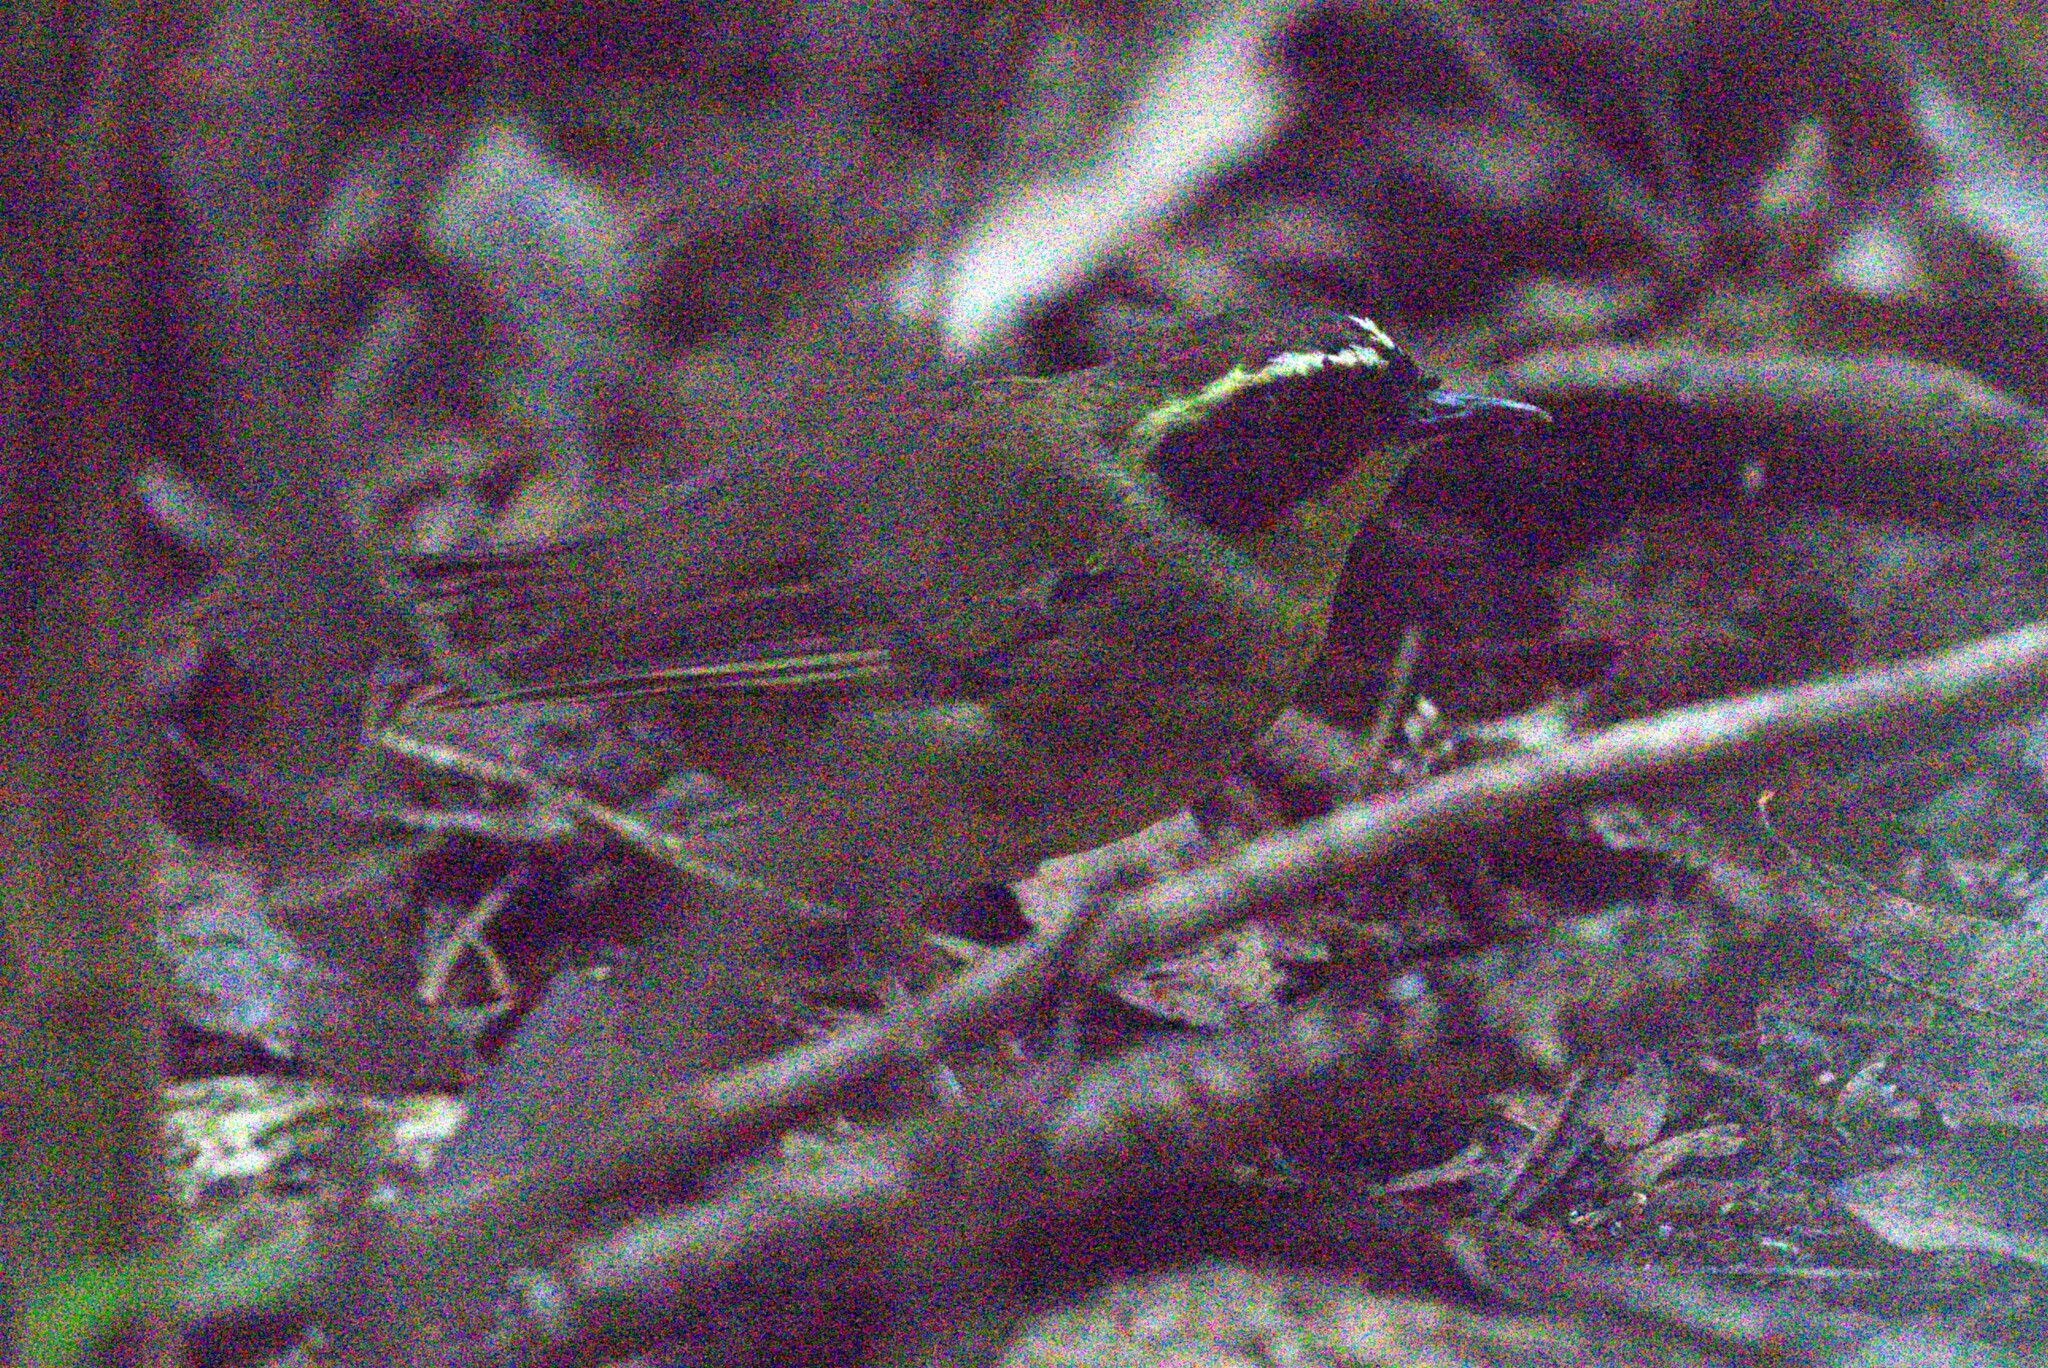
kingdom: Animalia
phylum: Chordata
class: Aves
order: Passeriformes
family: Acanthizidae
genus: Sericornis
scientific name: Sericornis citreogularis
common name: Yellow-throated scrubwren
